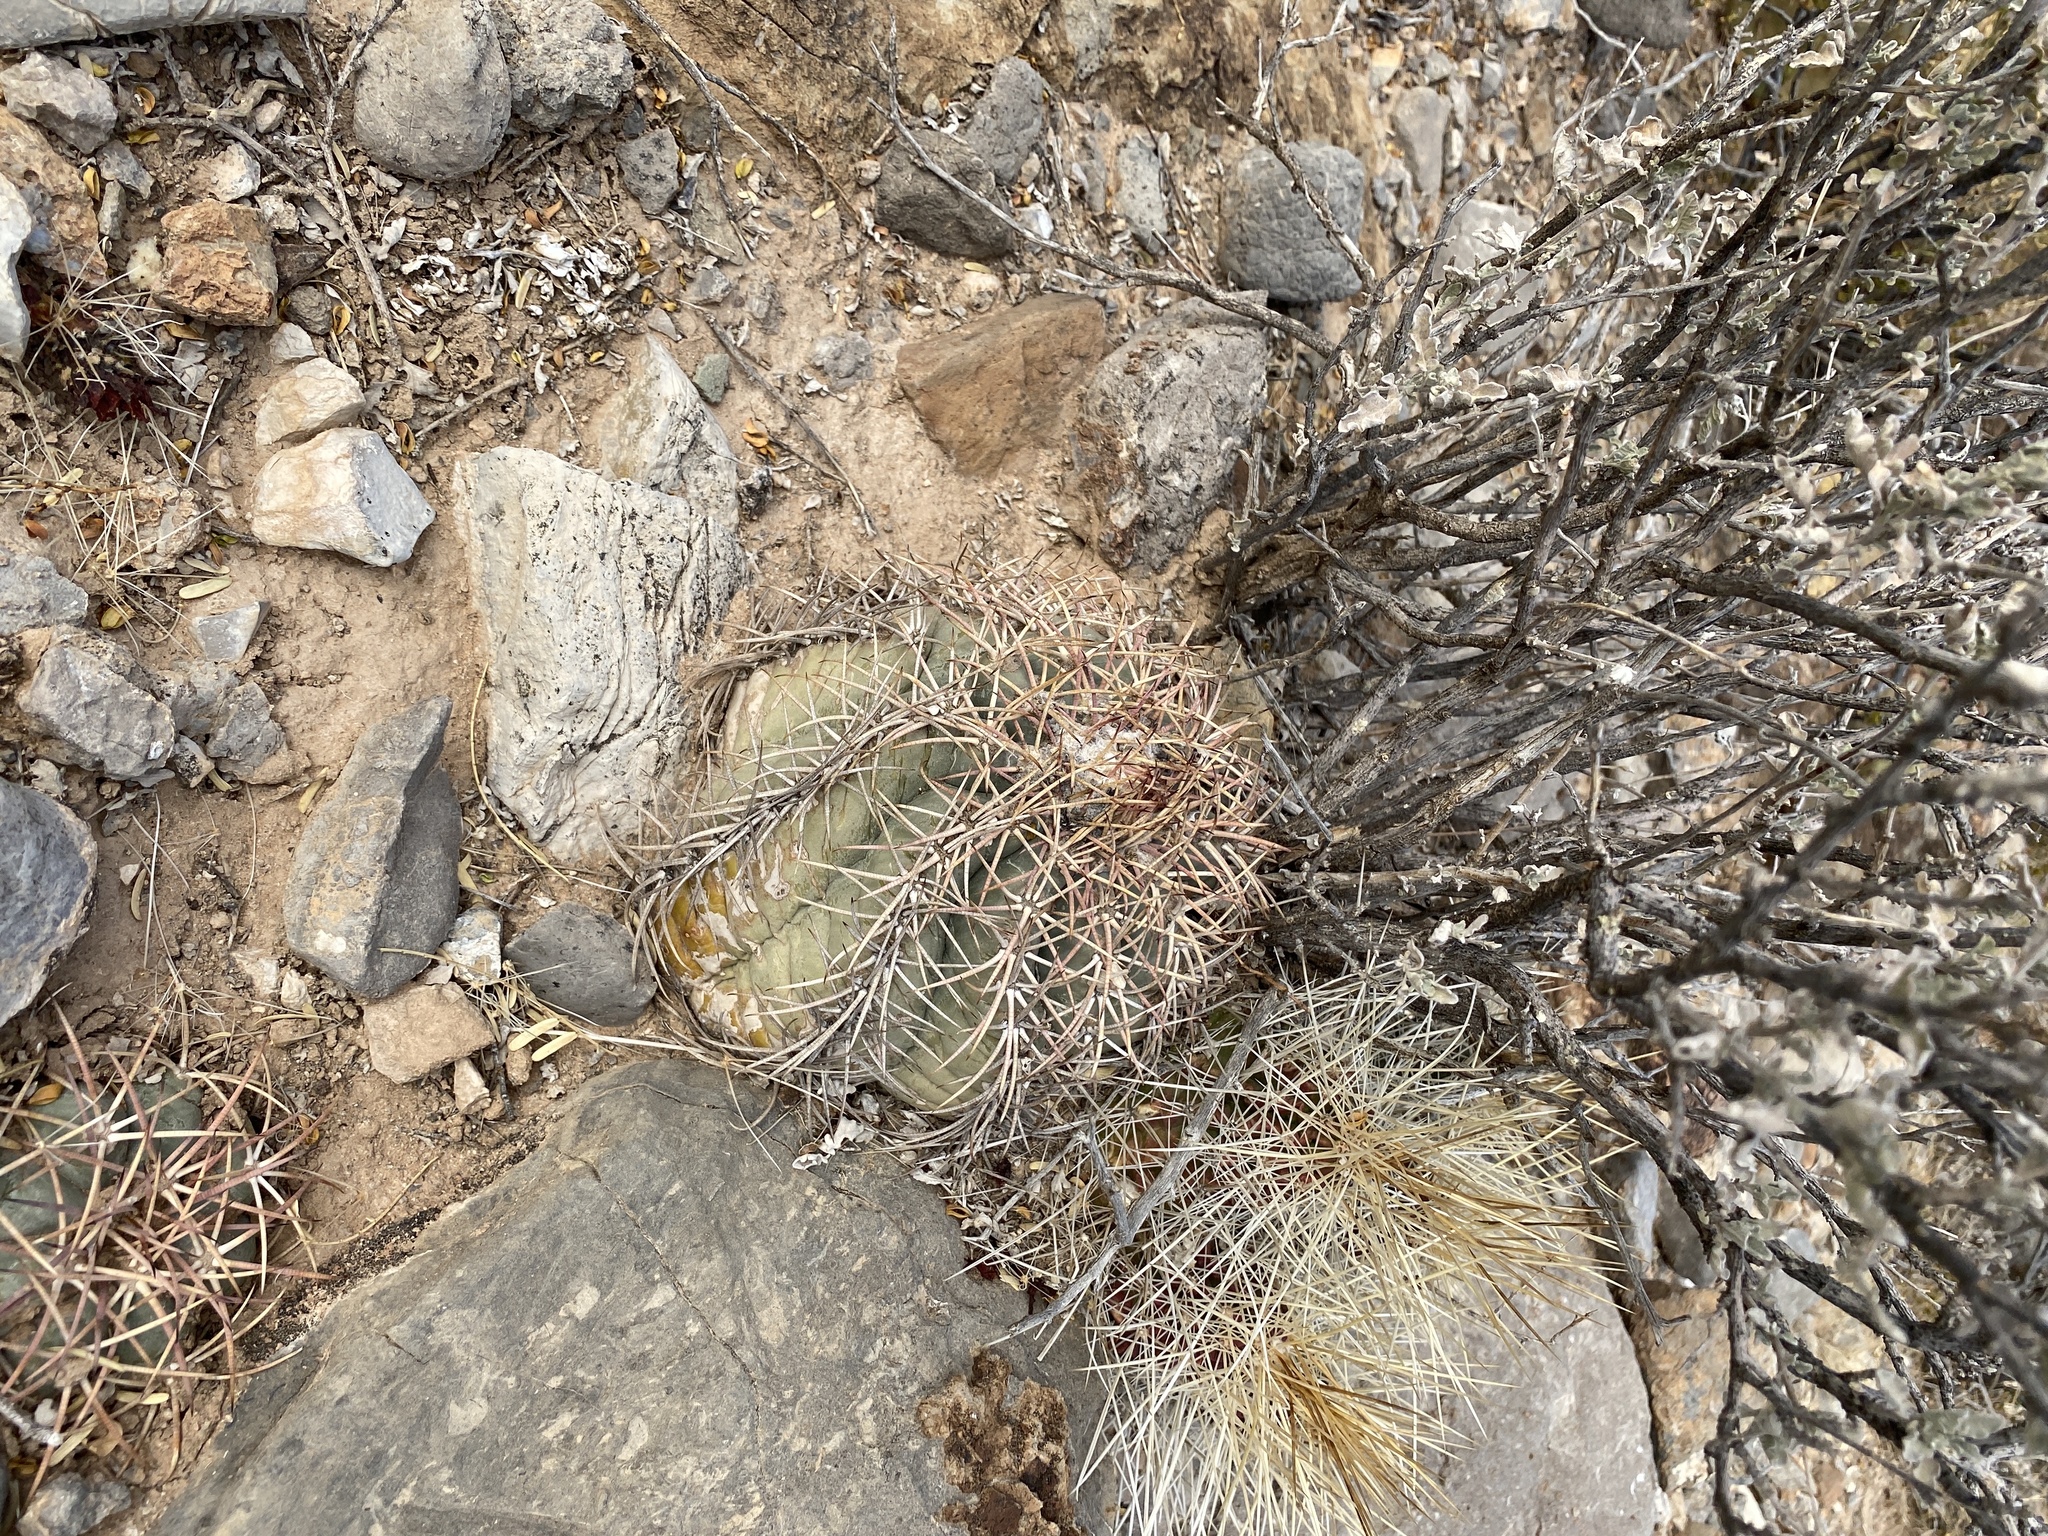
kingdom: Plantae
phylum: Tracheophyta
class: Magnoliopsida
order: Caryophyllales
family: Cactaceae
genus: Echinocactus
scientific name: Echinocactus horizonthalonius
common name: Devilshead
